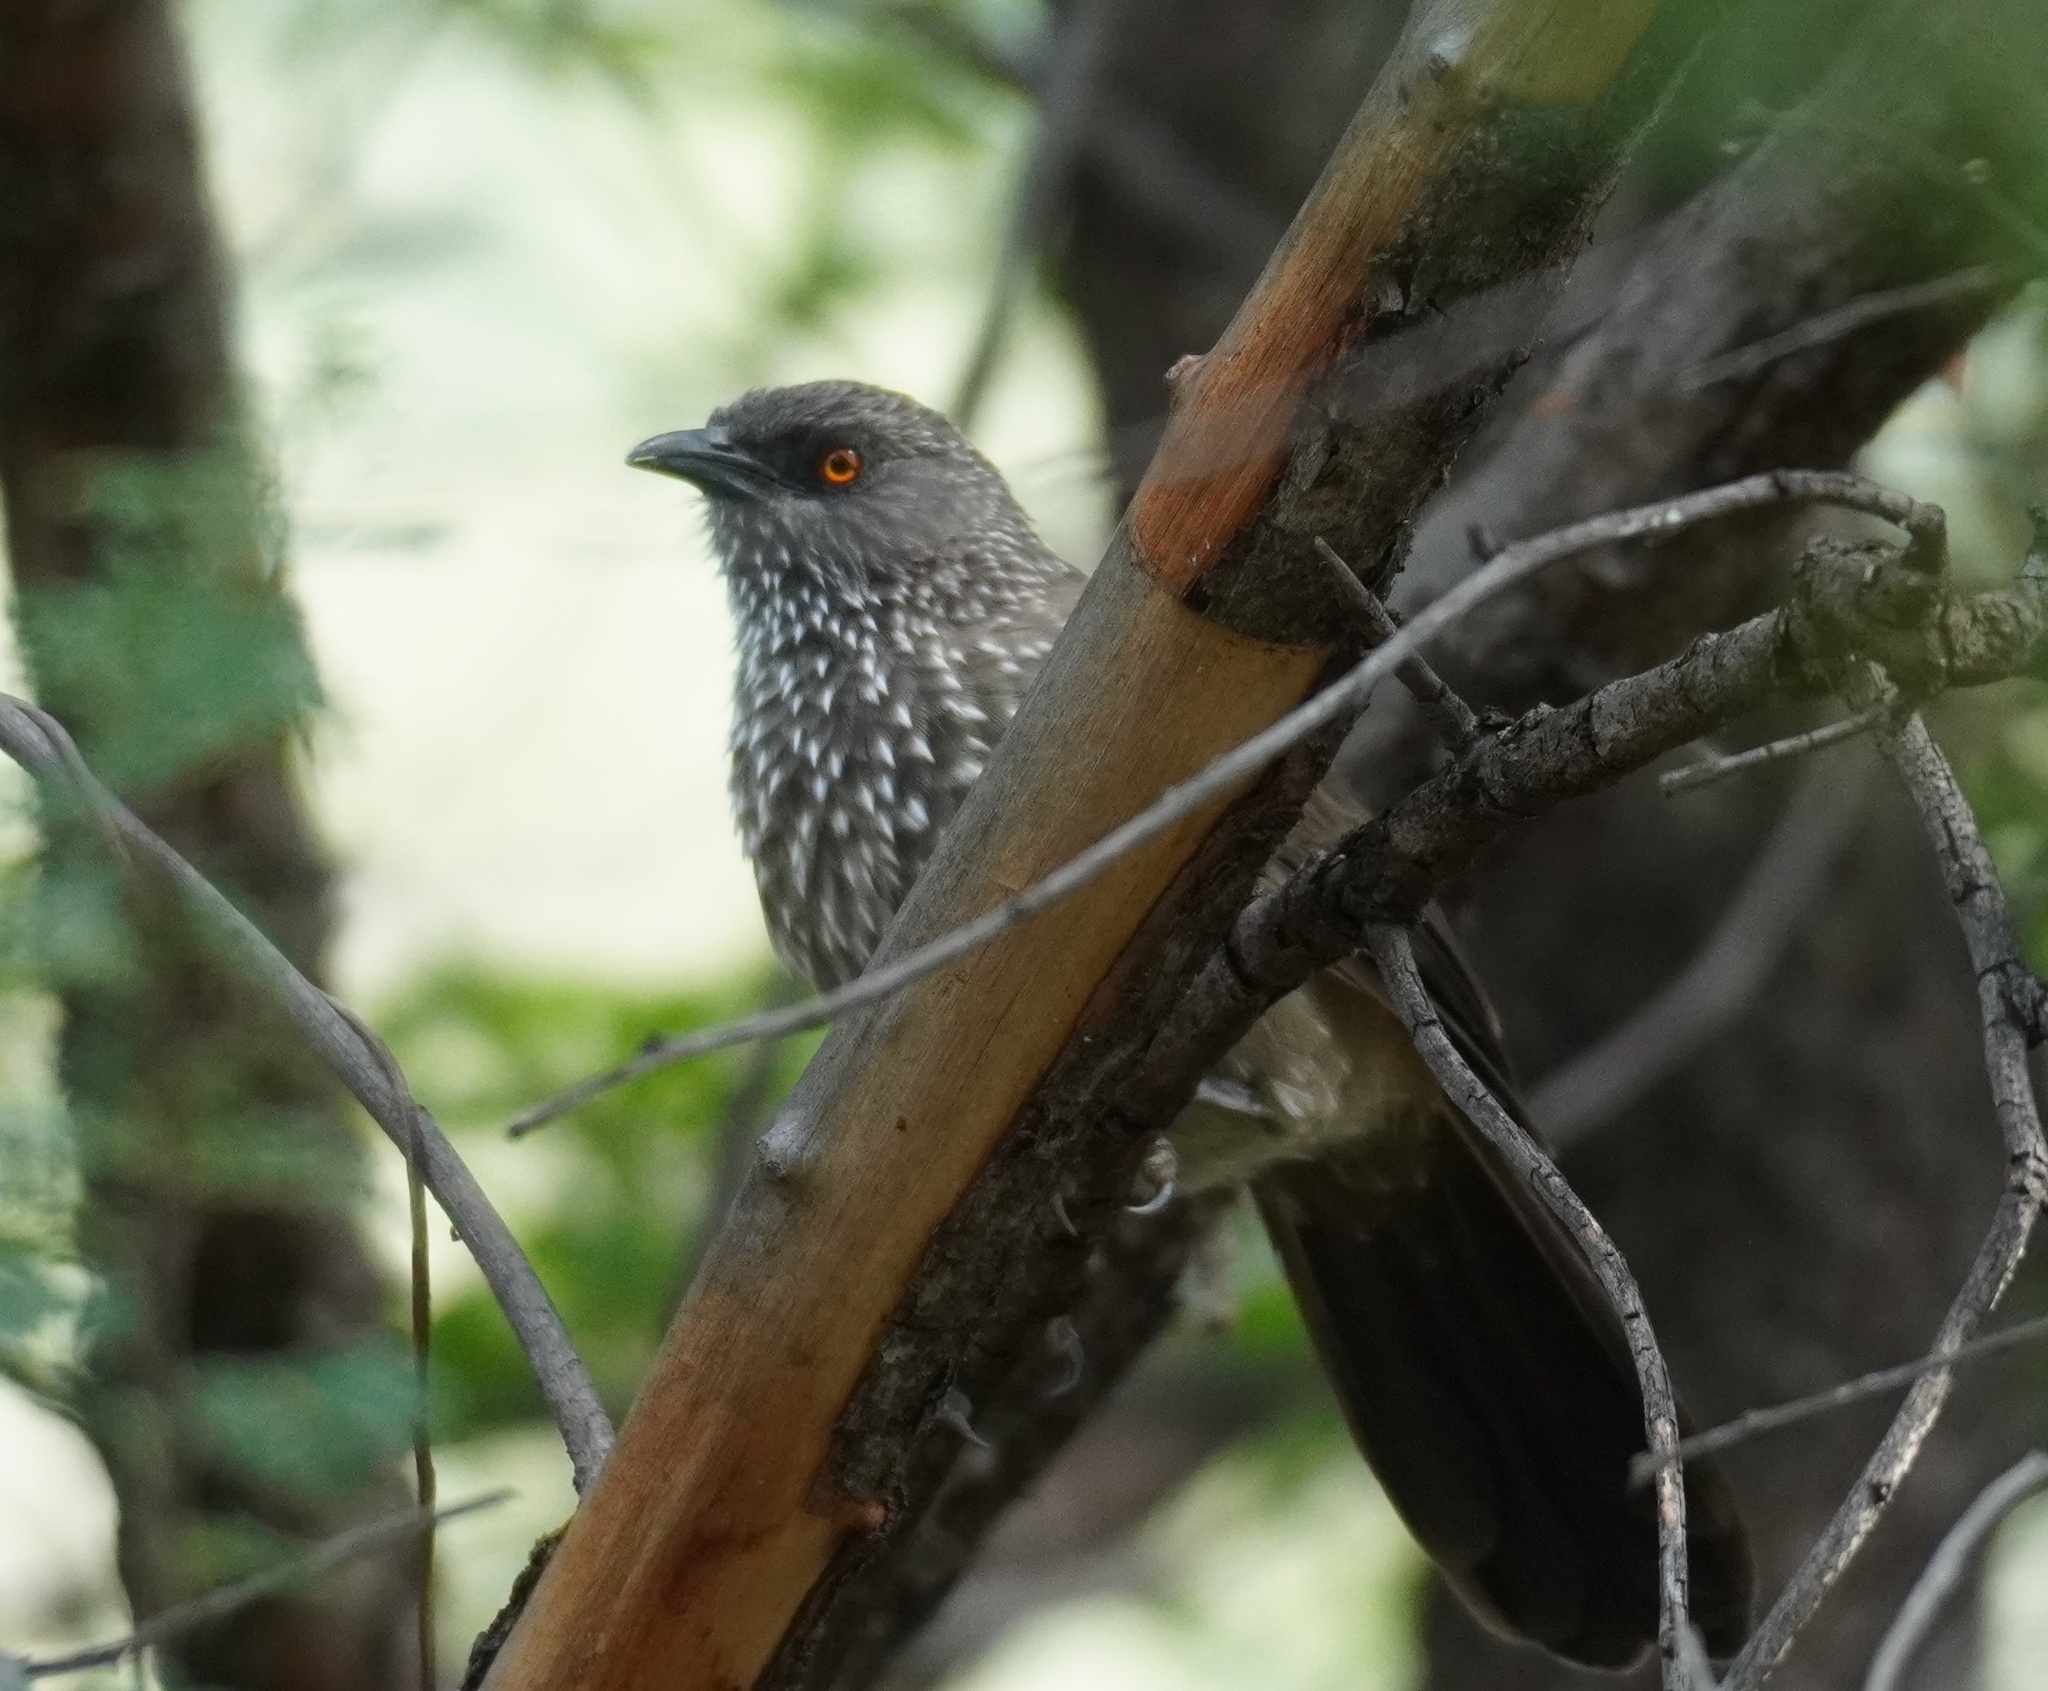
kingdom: Animalia
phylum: Chordata
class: Aves
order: Passeriformes
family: Leiothrichidae
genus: Turdoides
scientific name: Turdoides jardineii
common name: Arrow-marked babbler
